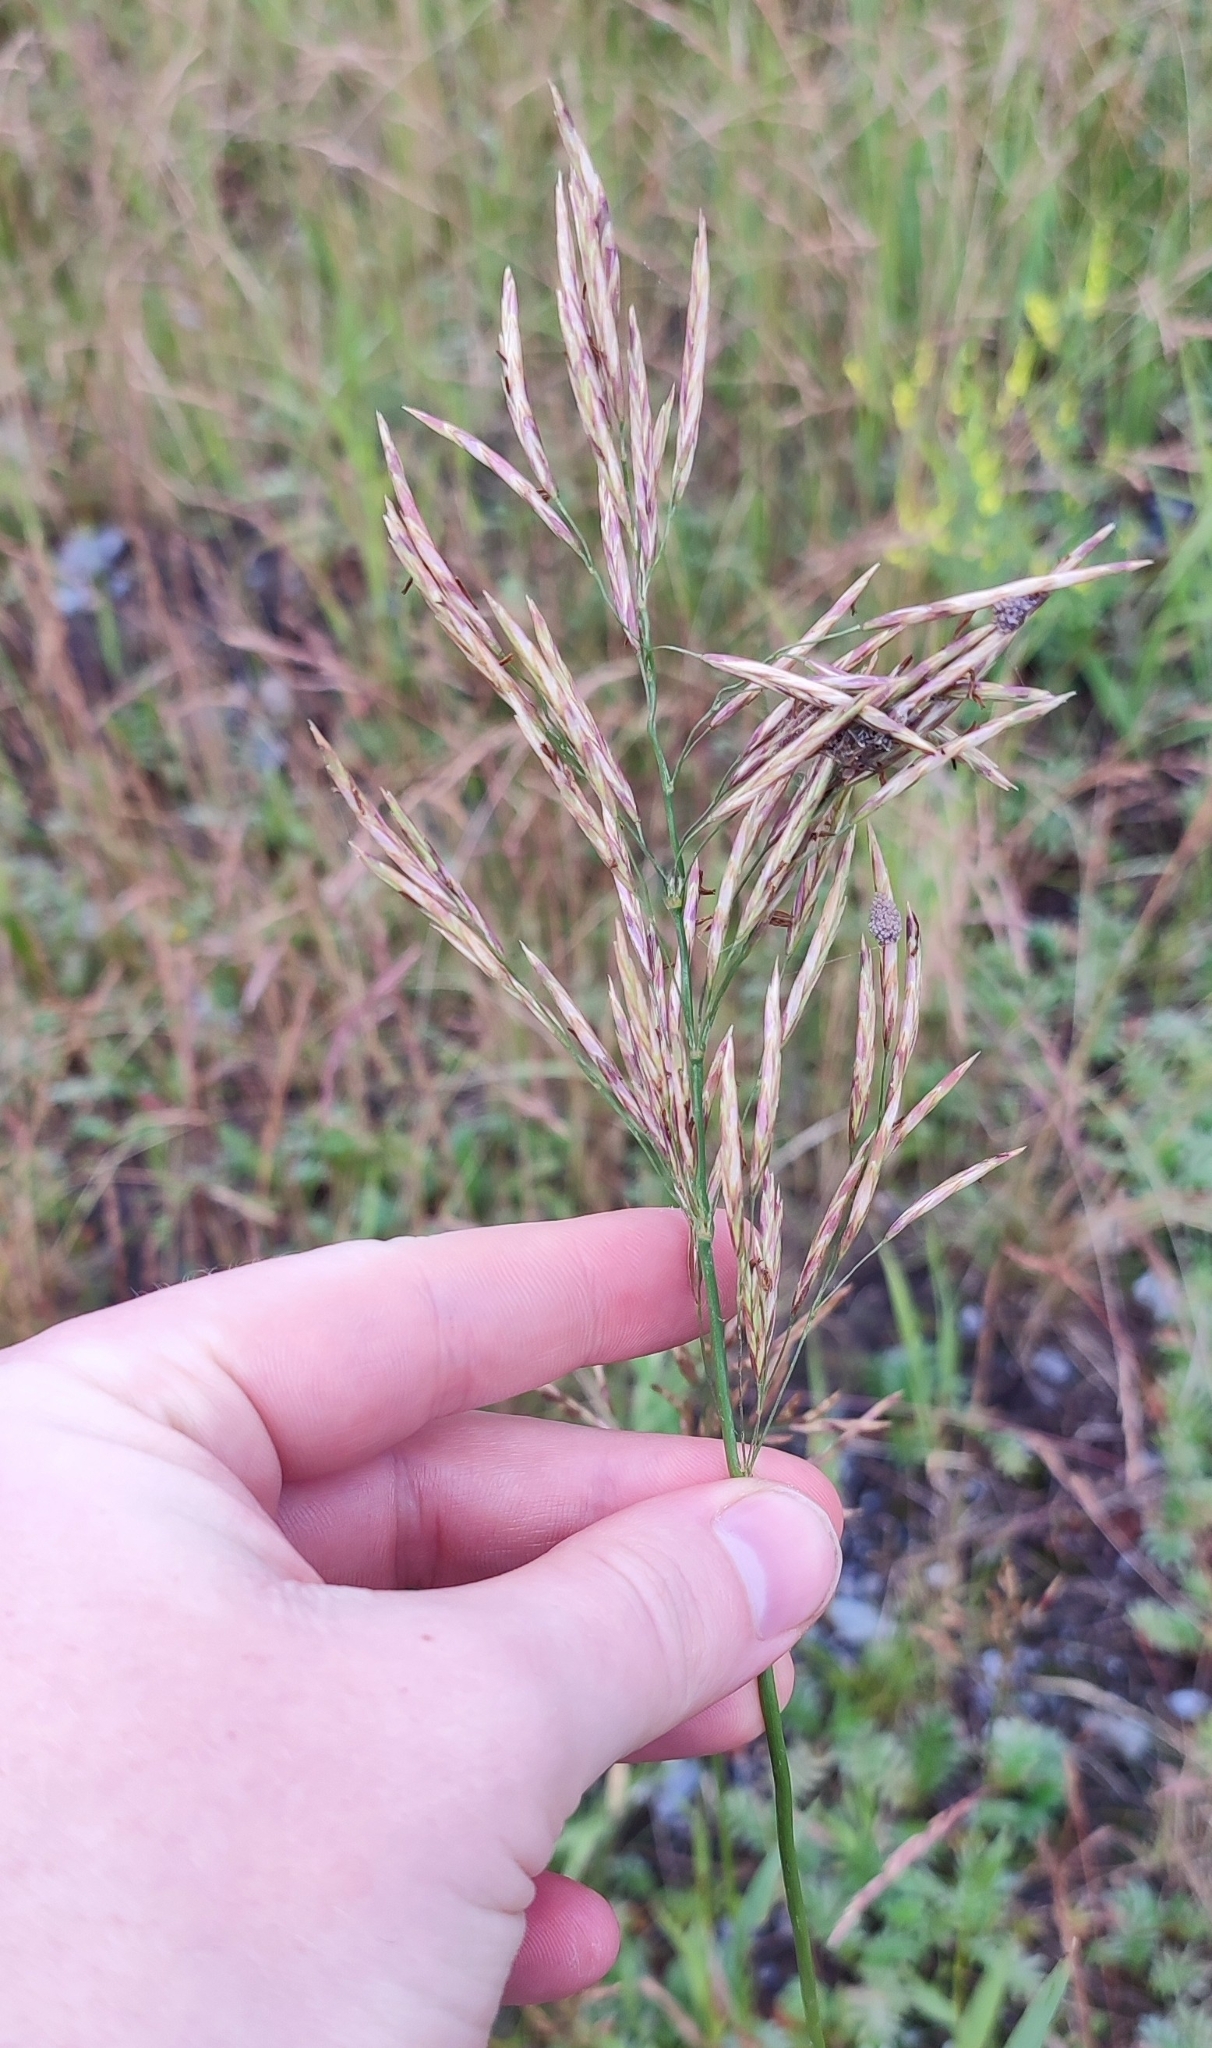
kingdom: Plantae
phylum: Tracheophyta
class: Liliopsida
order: Poales
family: Poaceae
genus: Bromus
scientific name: Bromus inermis
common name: Smooth brome
